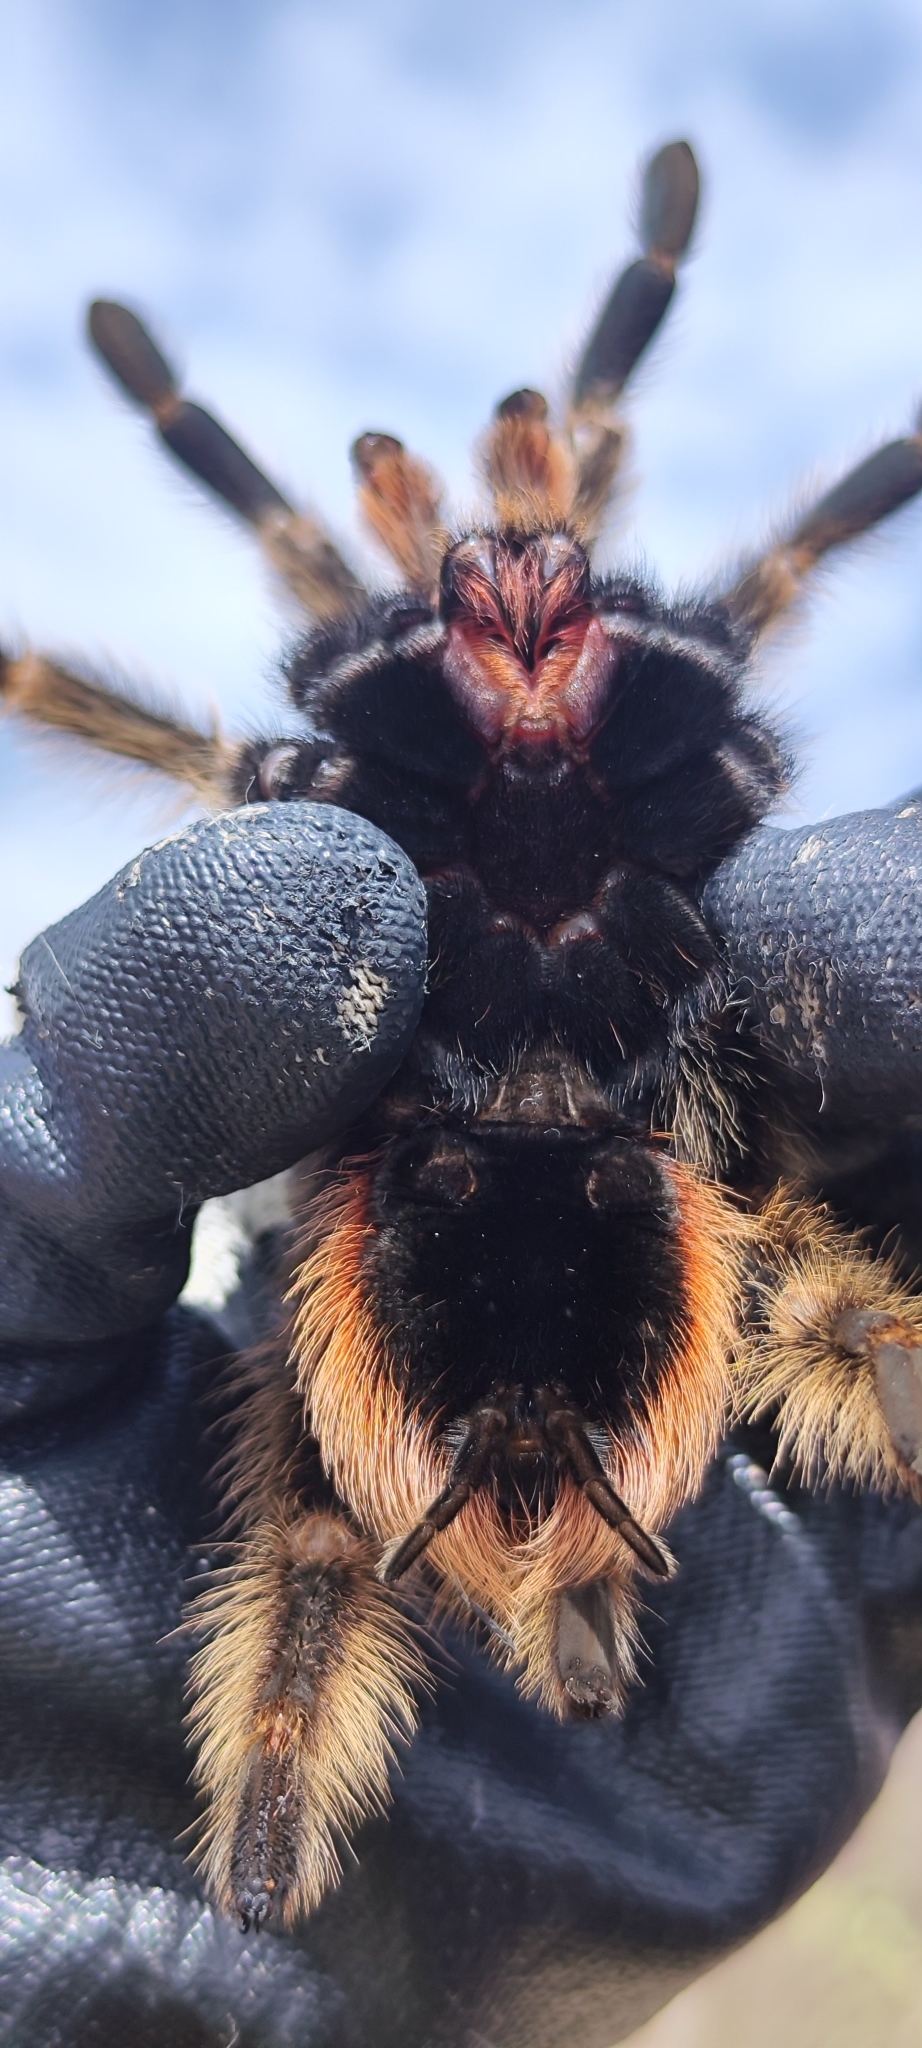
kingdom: Animalia
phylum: Arthropoda
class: Arachnida
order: Araneae
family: Theraphosidae
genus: Lasiodora
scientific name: Lasiodora parahybana
